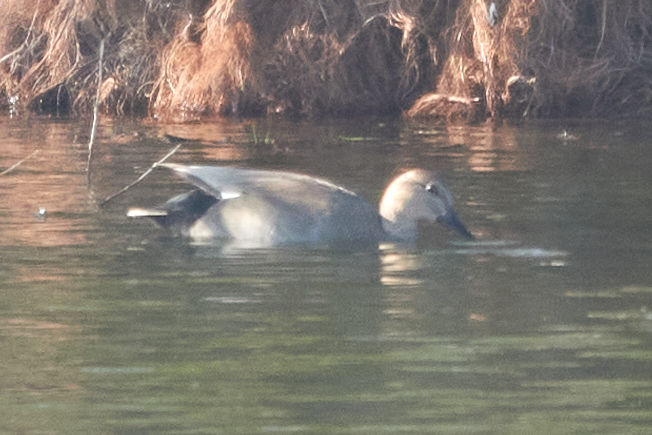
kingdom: Animalia
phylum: Chordata
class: Aves
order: Anseriformes
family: Anatidae
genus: Mareca
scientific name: Mareca strepera
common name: Gadwall
